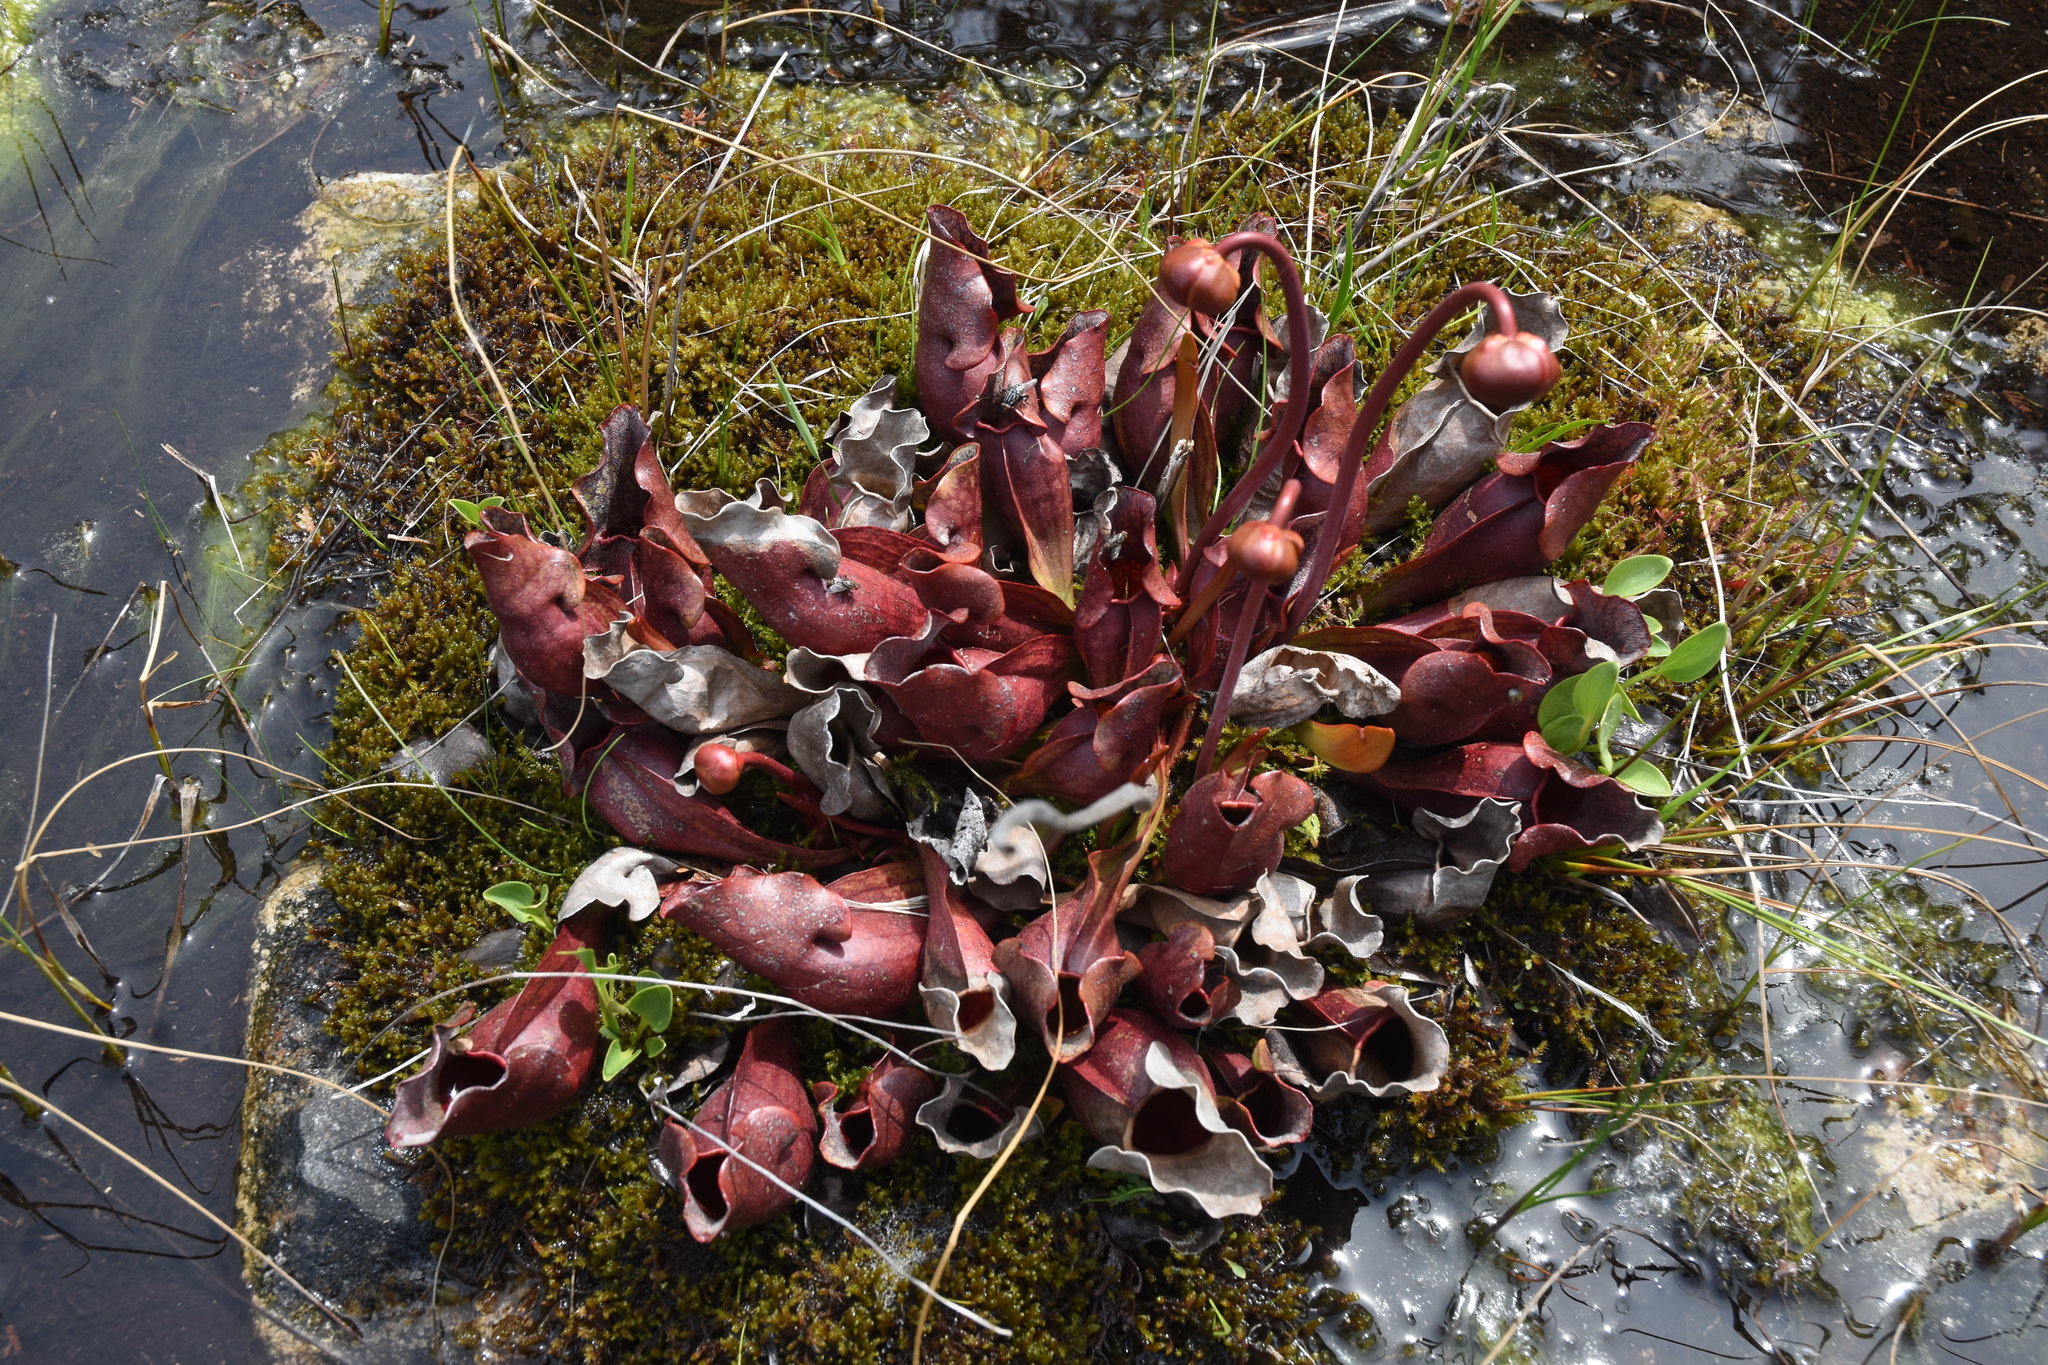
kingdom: Plantae
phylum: Tracheophyta
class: Magnoliopsida
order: Ericales
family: Sarraceniaceae
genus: Sarracenia
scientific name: Sarracenia purpurea
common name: Pitcherplant
